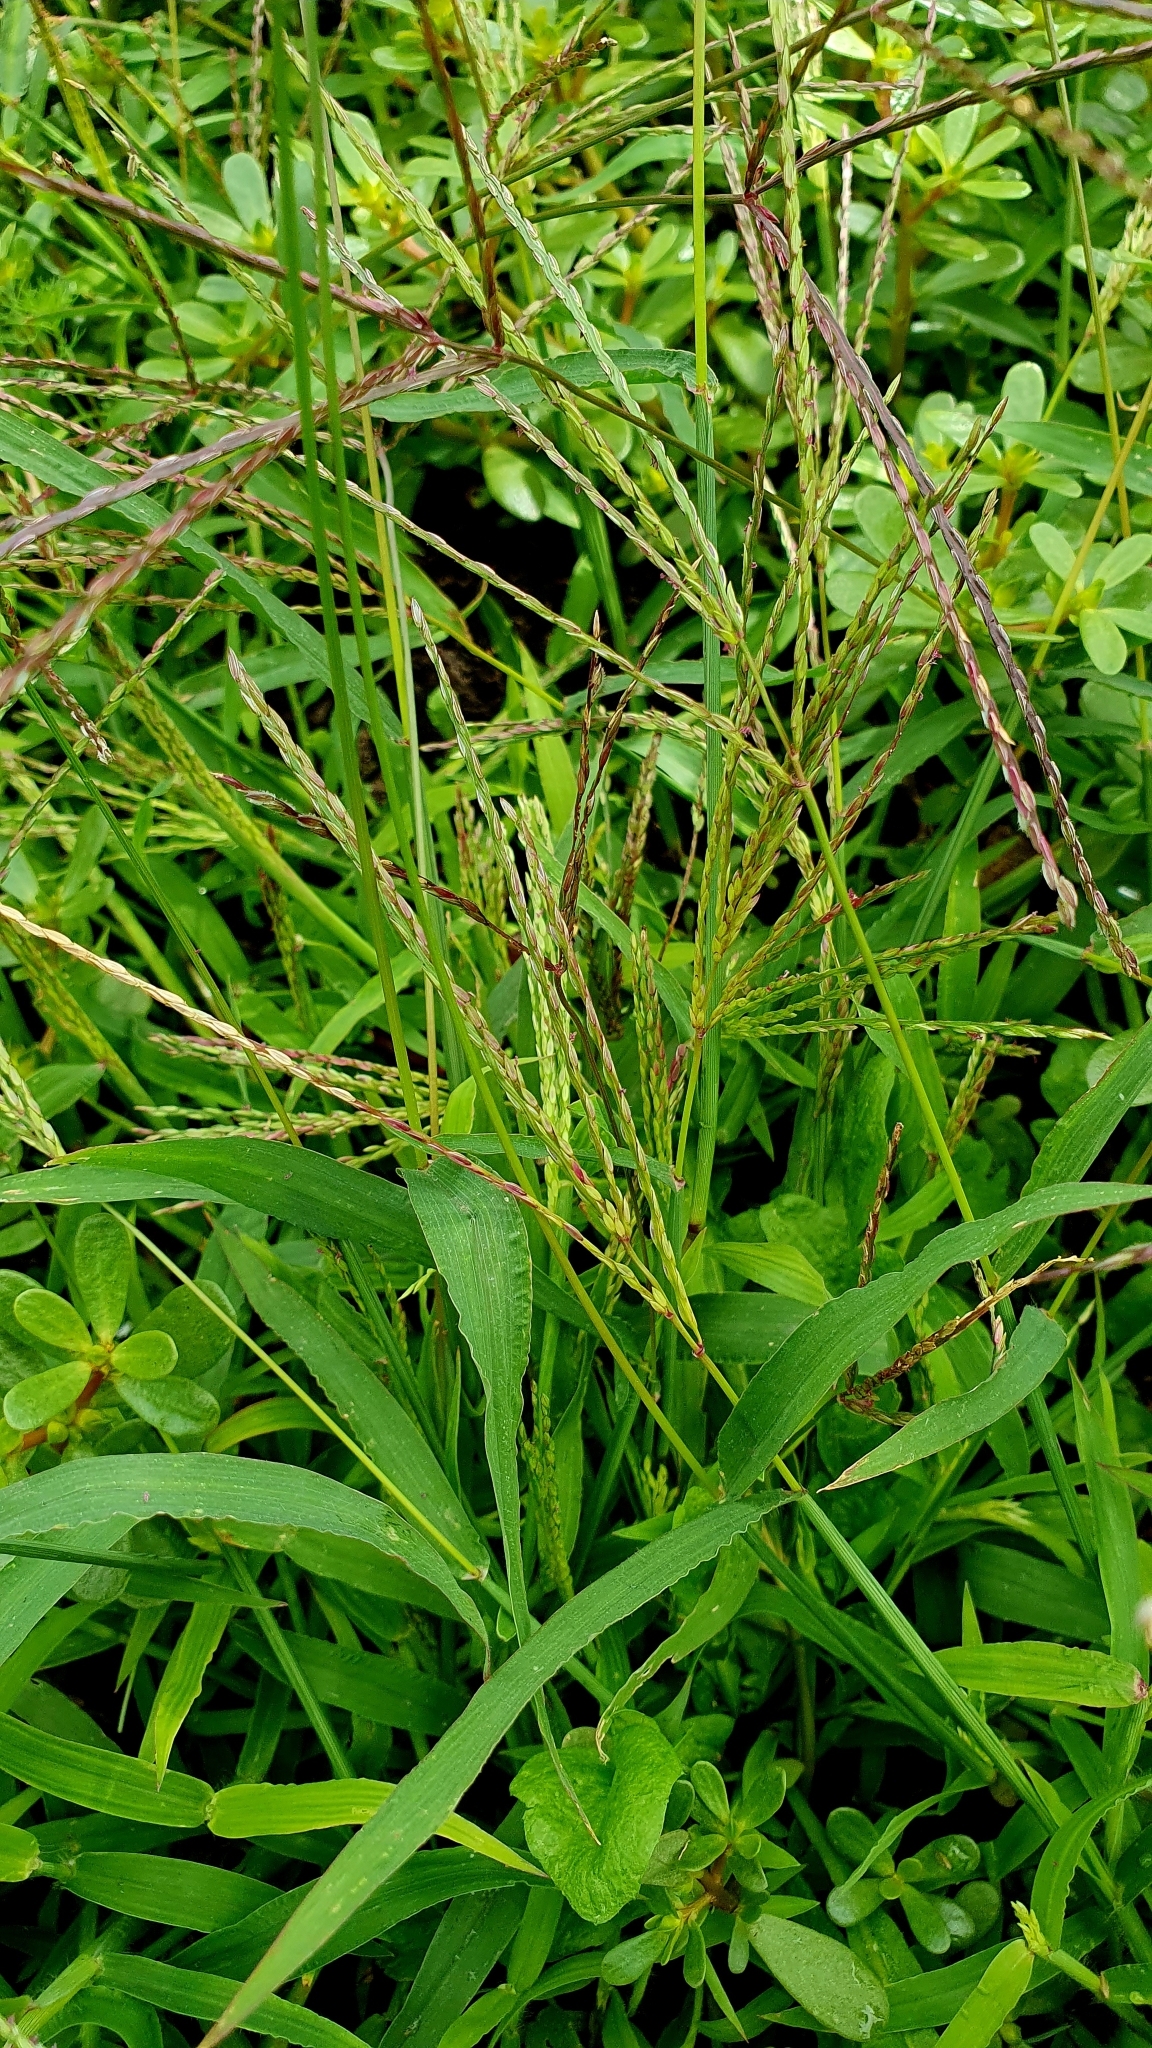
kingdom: Plantae
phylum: Tracheophyta
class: Liliopsida
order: Poales
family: Poaceae
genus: Digitaria
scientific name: Digitaria sanguinalis
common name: Hairy crabgrass
